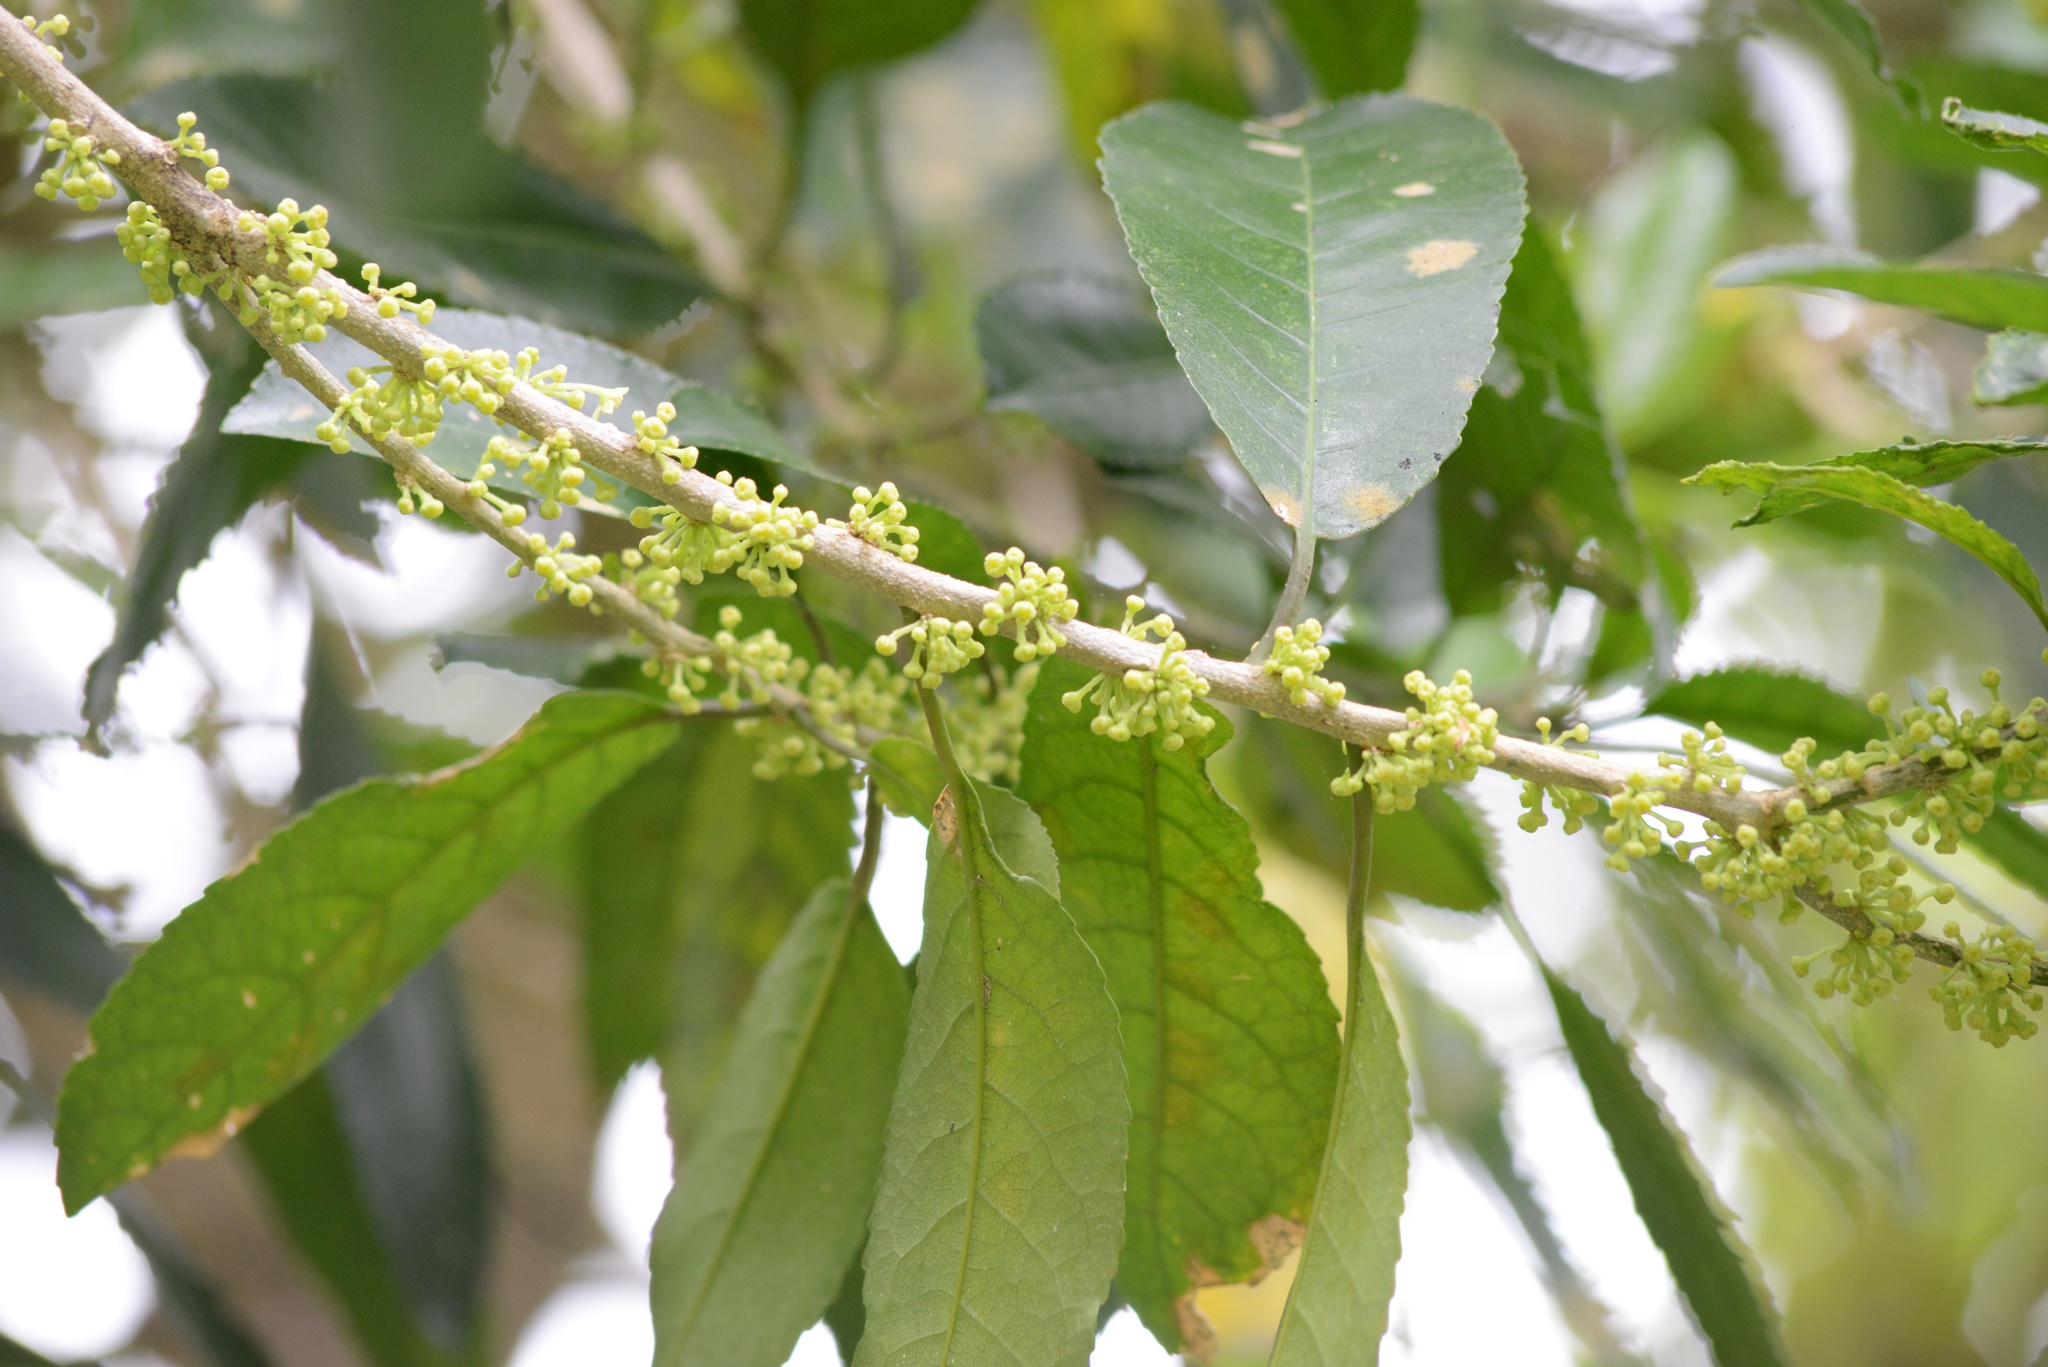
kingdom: Plantae
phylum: Tracheophyta
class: Magnoliopsida
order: Malpighiales
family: Violaceae
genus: Melicytus
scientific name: Melicytus ramiflorus
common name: Mahoe
